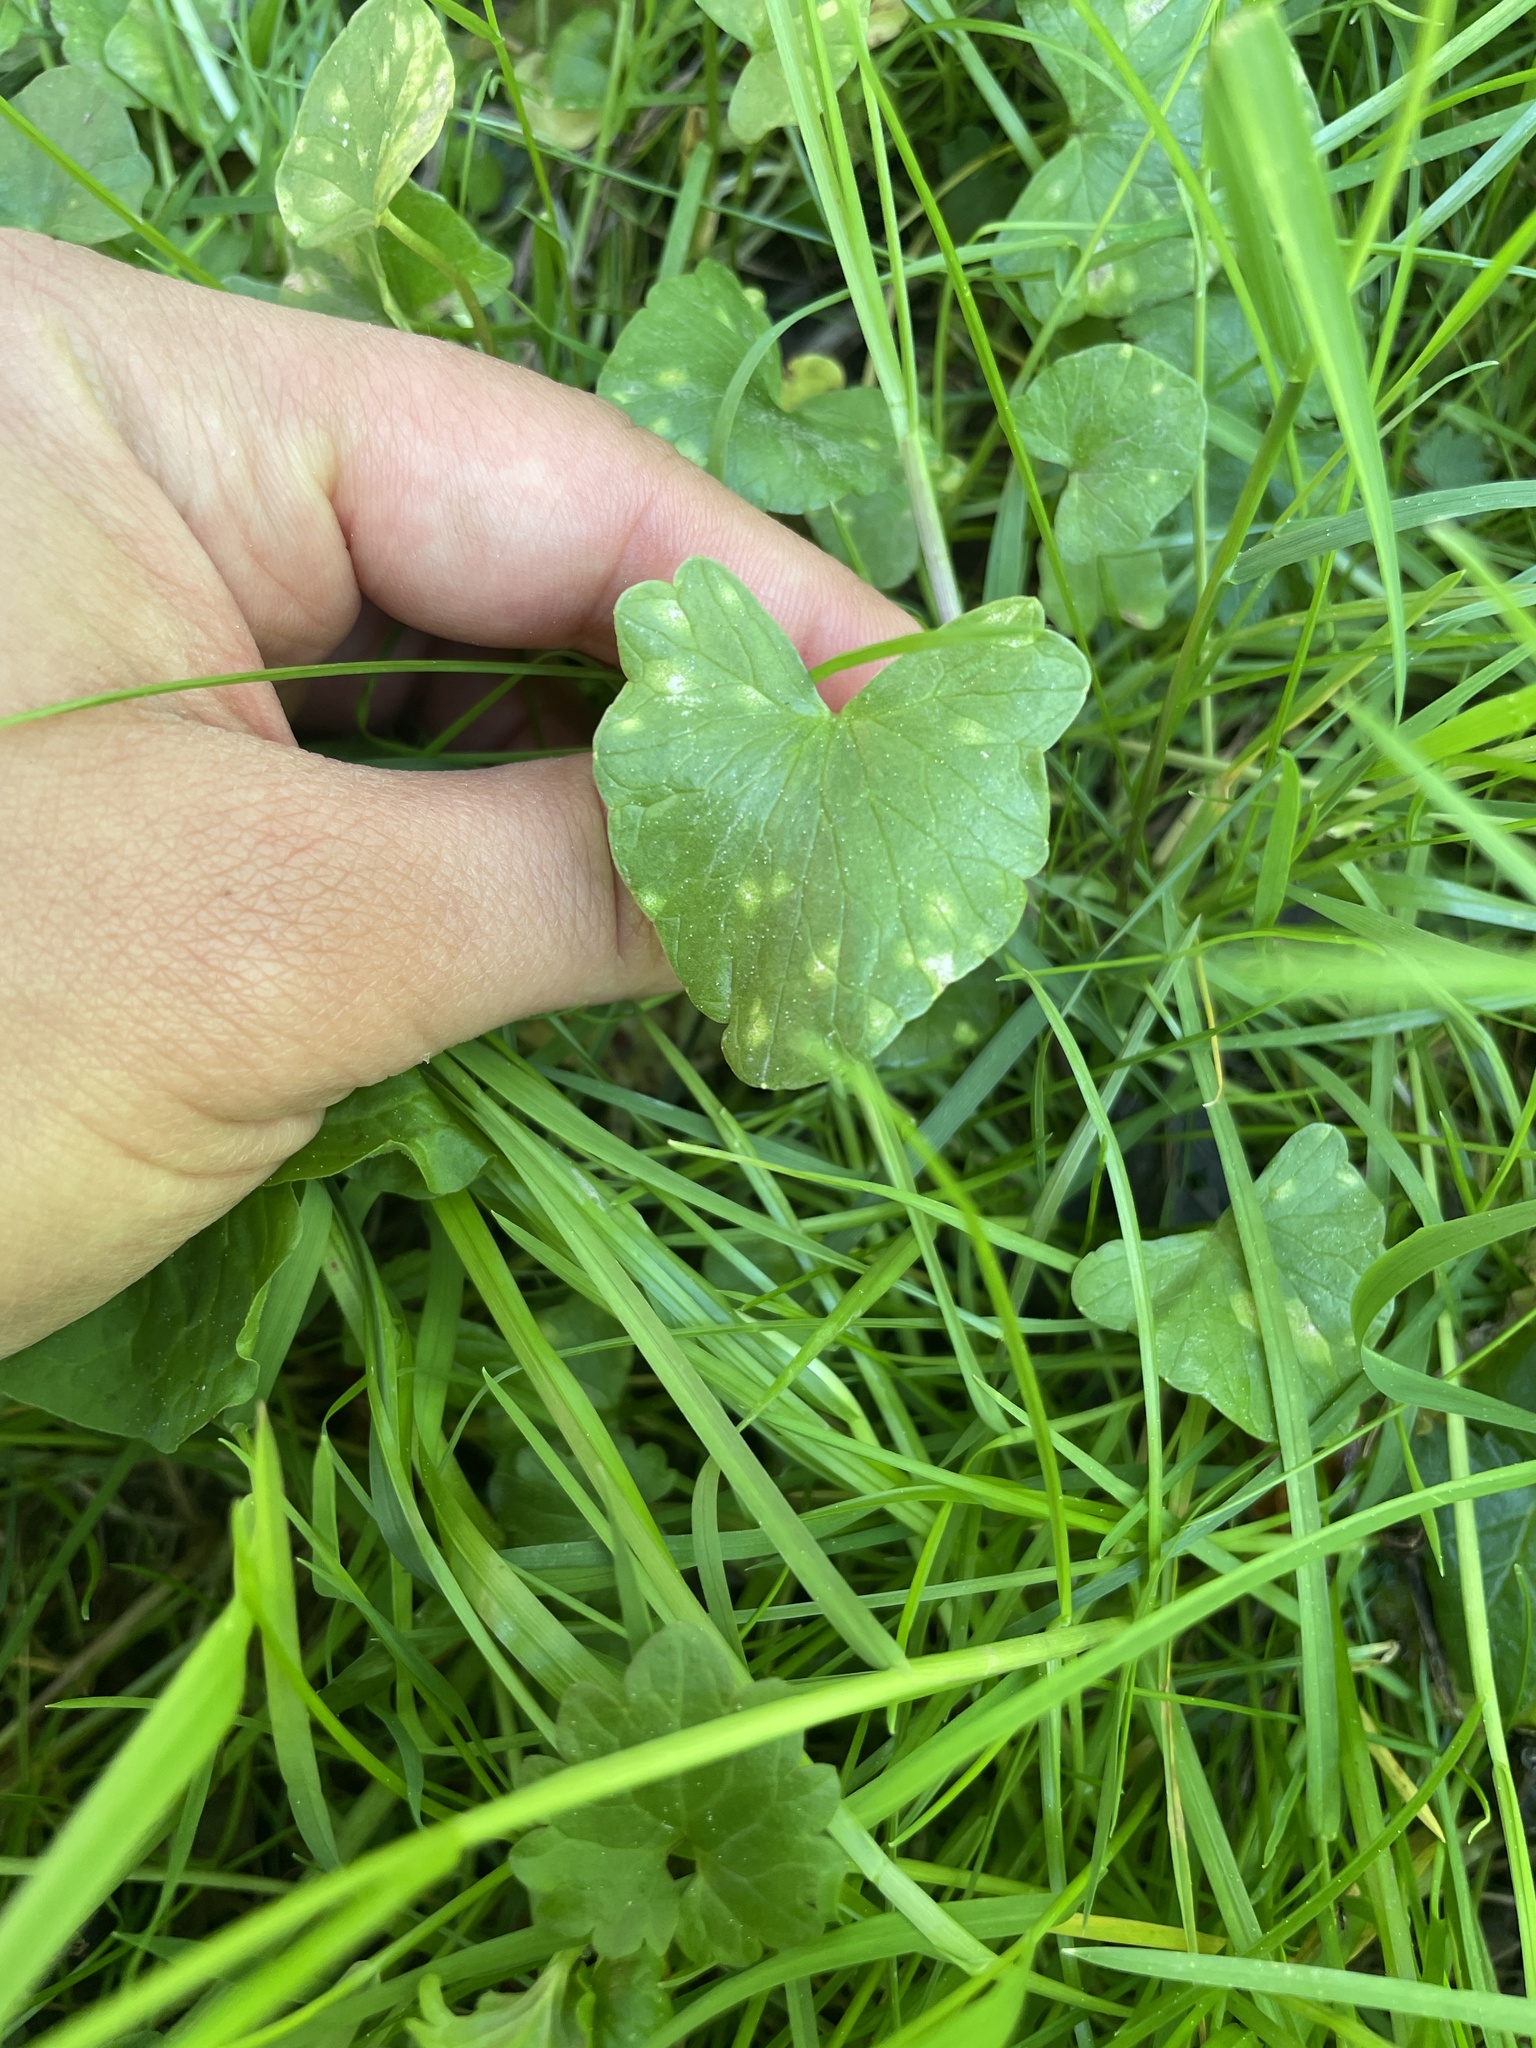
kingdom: Plantae
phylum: Tracheophyta
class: Magnoliopsida
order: Ranunculales
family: Ranunculaceae
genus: Ficaria
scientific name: Ficaria verna
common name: Lesser celandine
